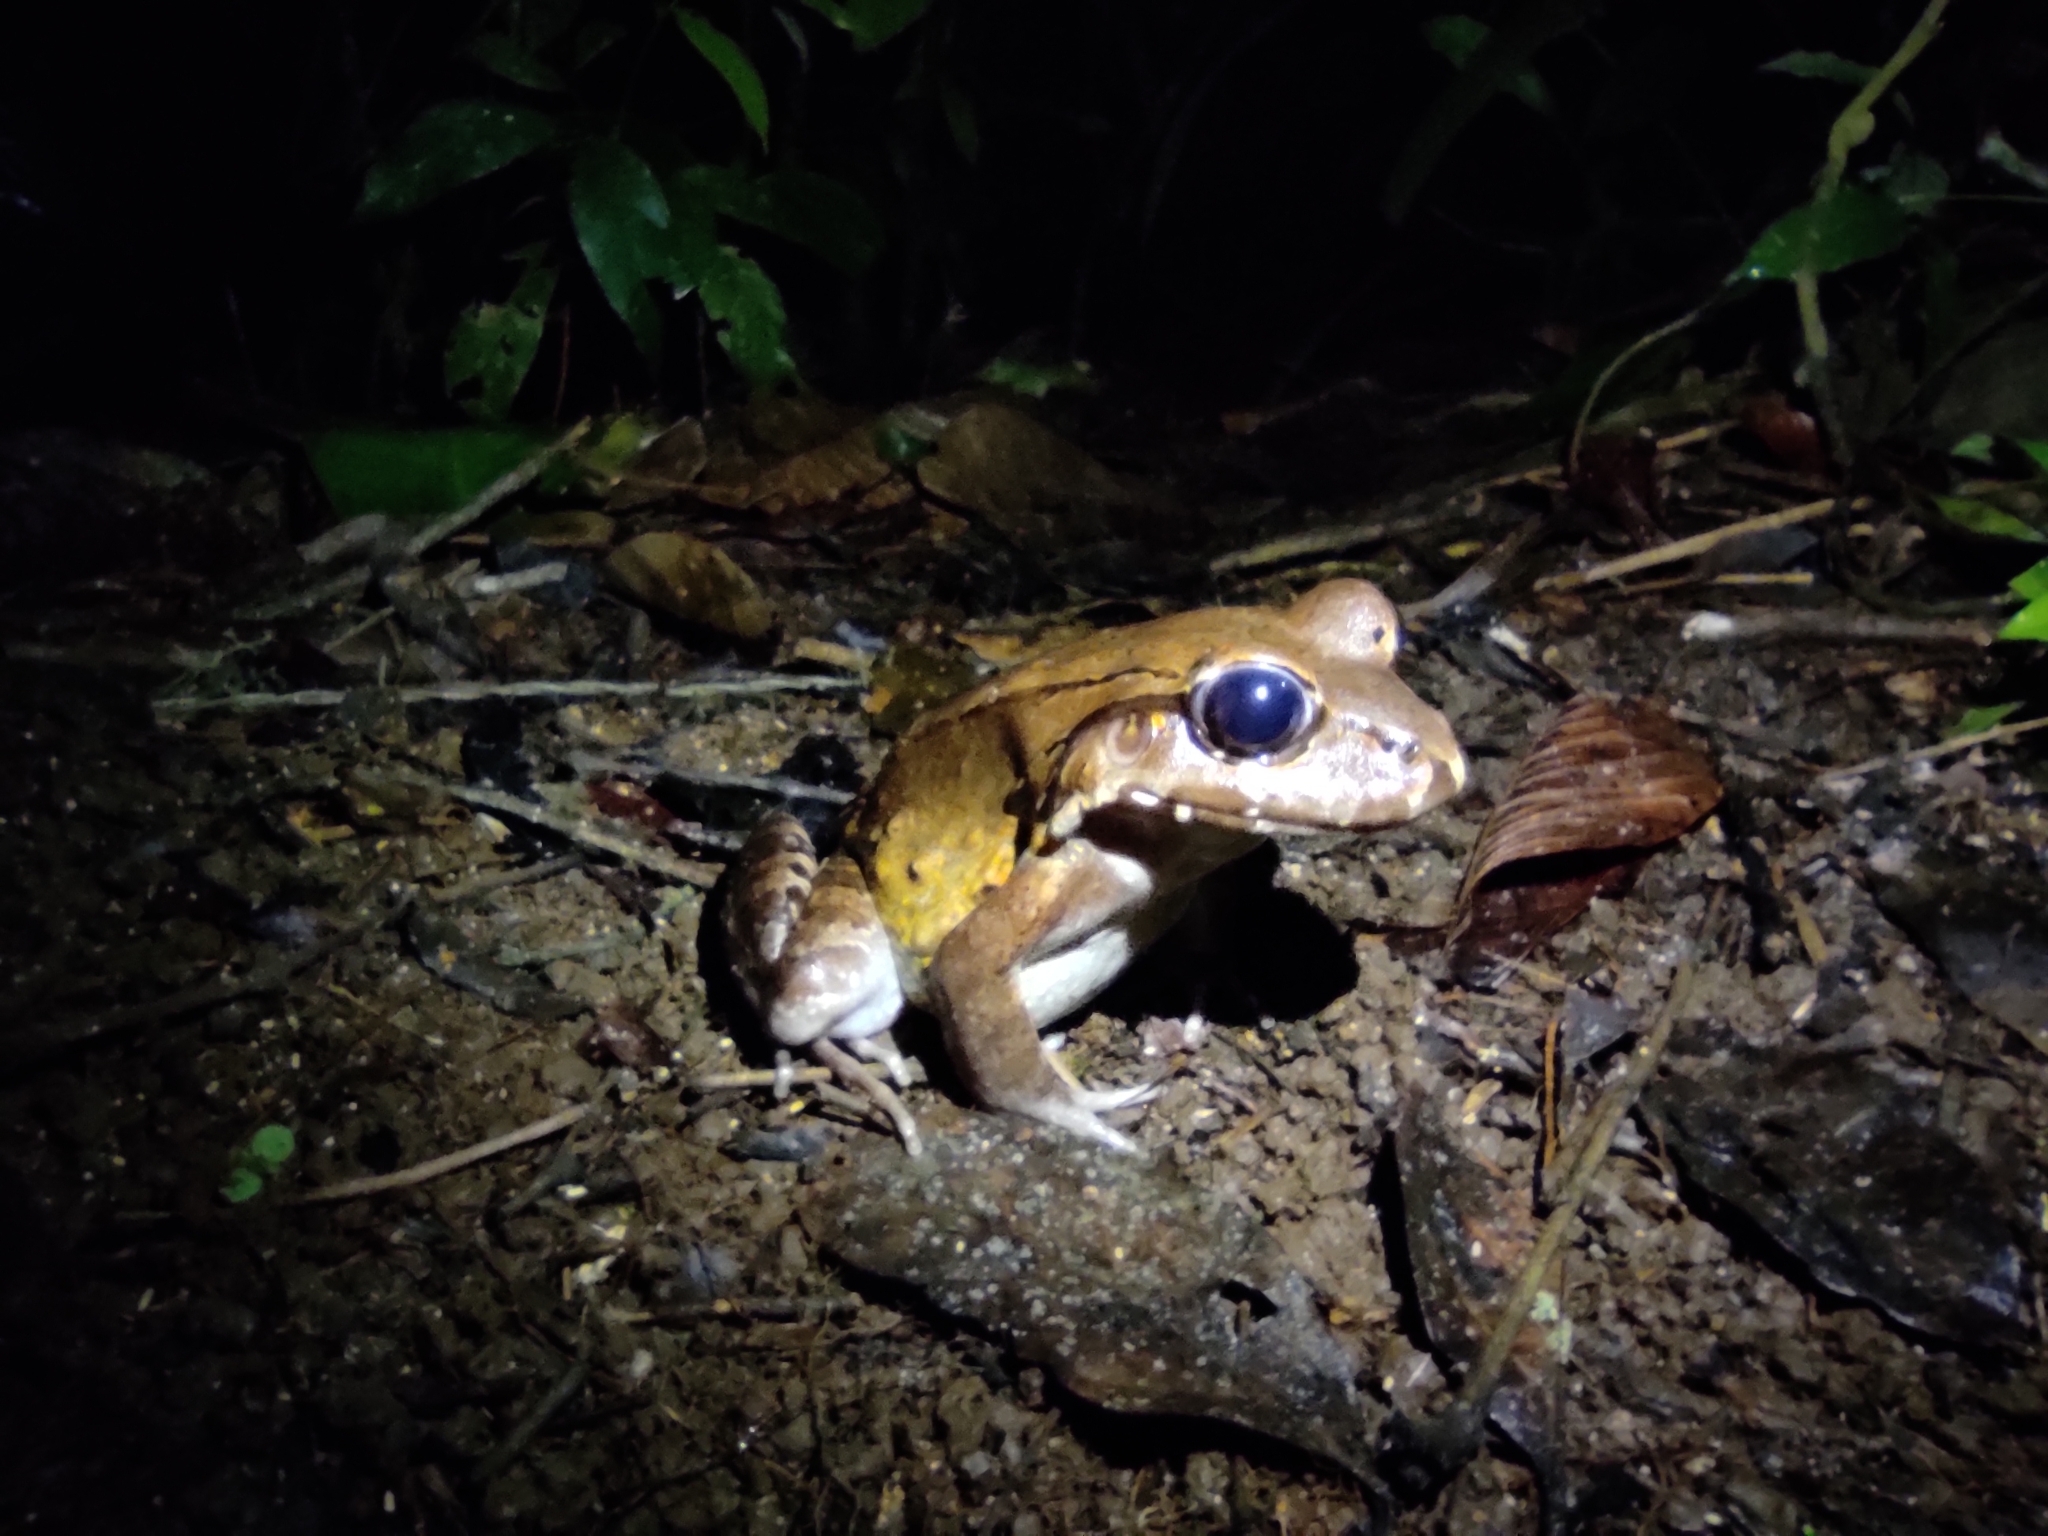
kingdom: Animalia
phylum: Chordata
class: Amphibia
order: Anura
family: Leptodactylidae
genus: Leptodactylus
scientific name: Leptodactylus savagei
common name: Savage's thin-toed frog
